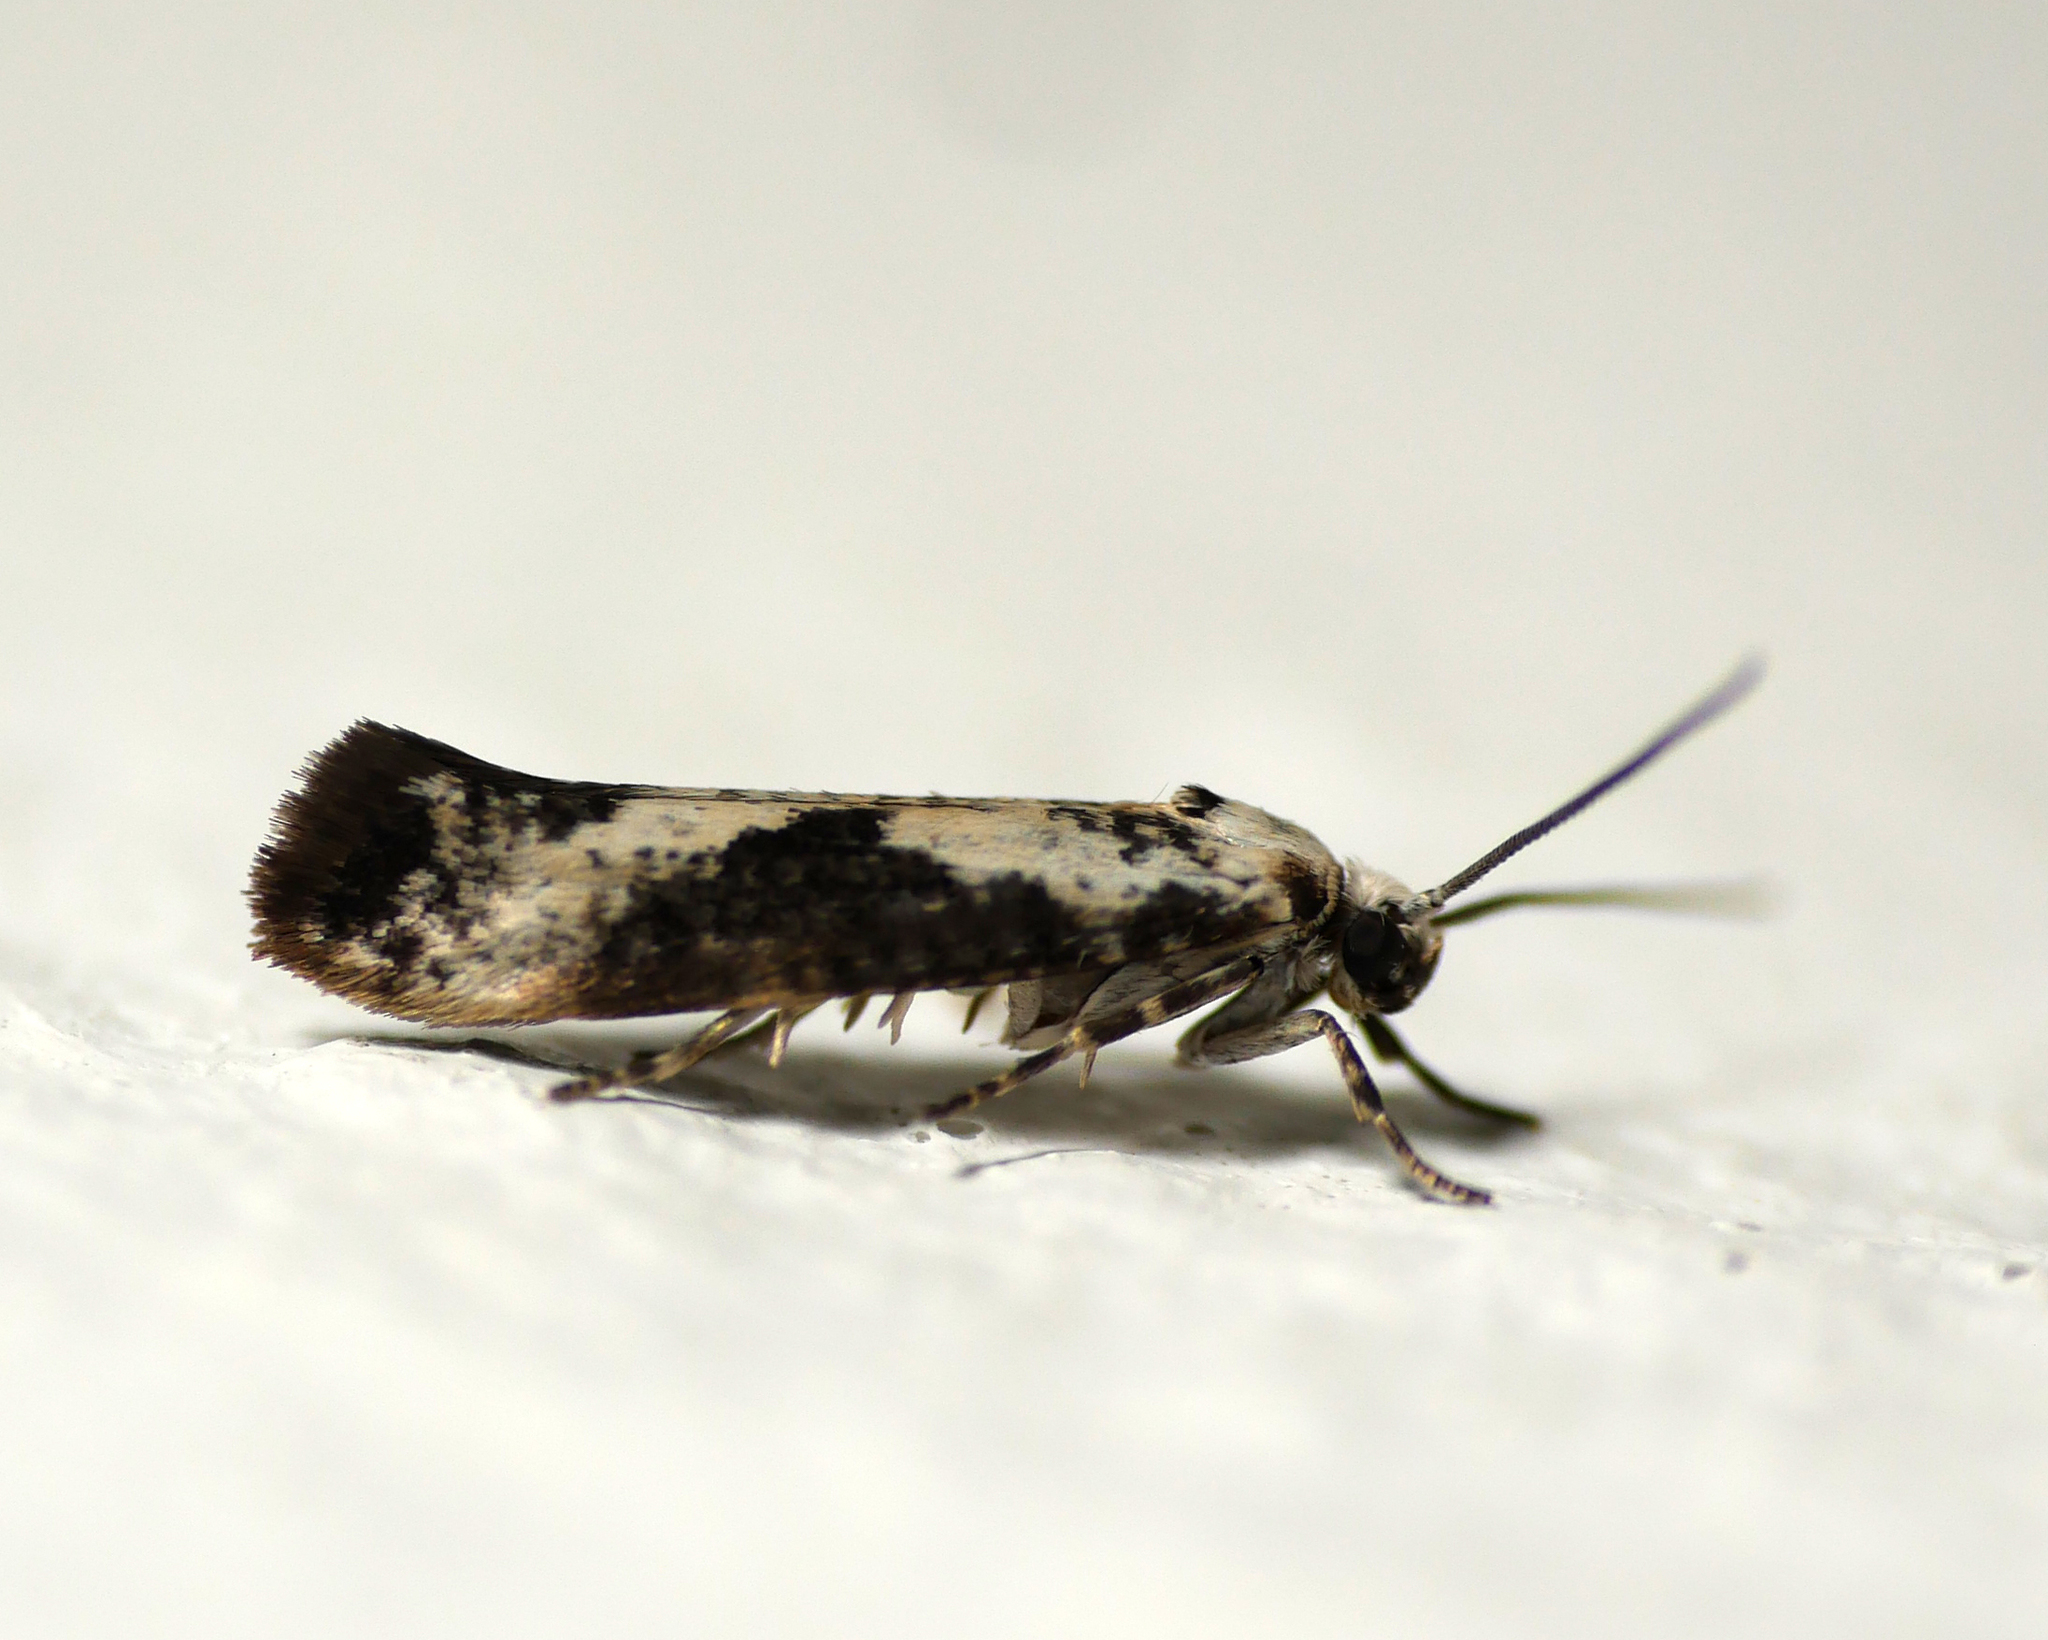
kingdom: Animalia
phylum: Arthropoda
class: Insecta
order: Lepidoptera
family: Praydidae
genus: Prays
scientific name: Prays fraxinella
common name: Ash bud moth
